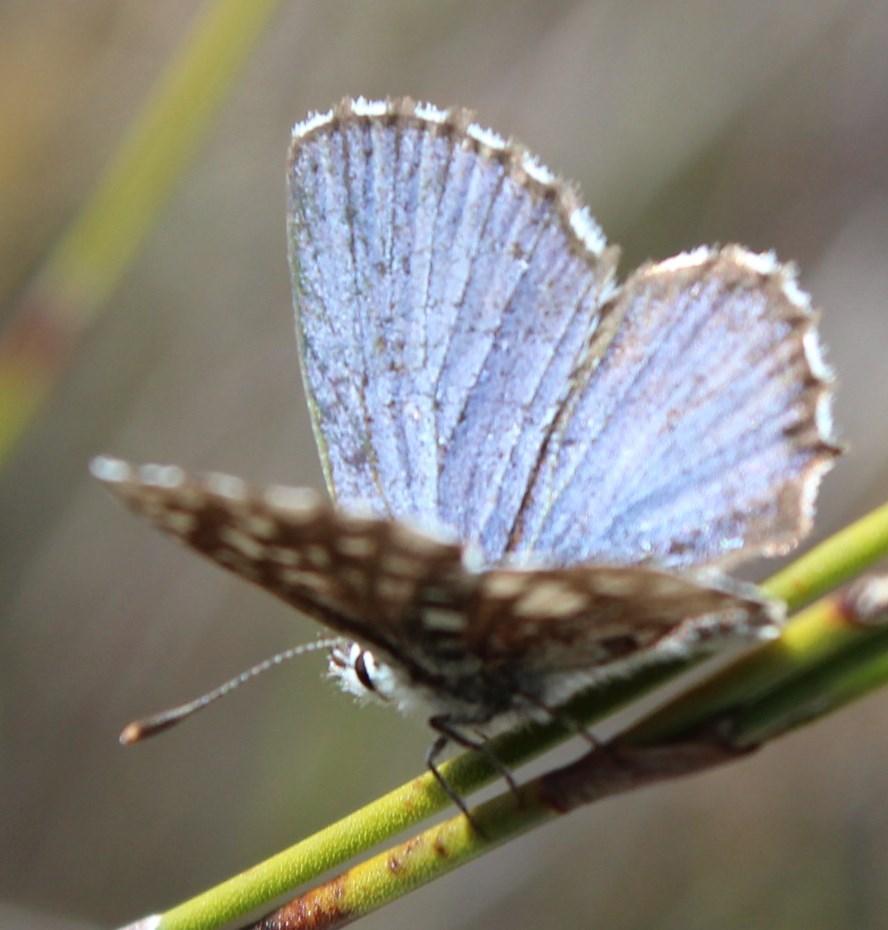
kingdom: Animalia
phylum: Arthropoda
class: Insecta
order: Lepidoptera
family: Lycaenidae
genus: Tarucus
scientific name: Tarucus thespis
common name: Vivid dotted blue
